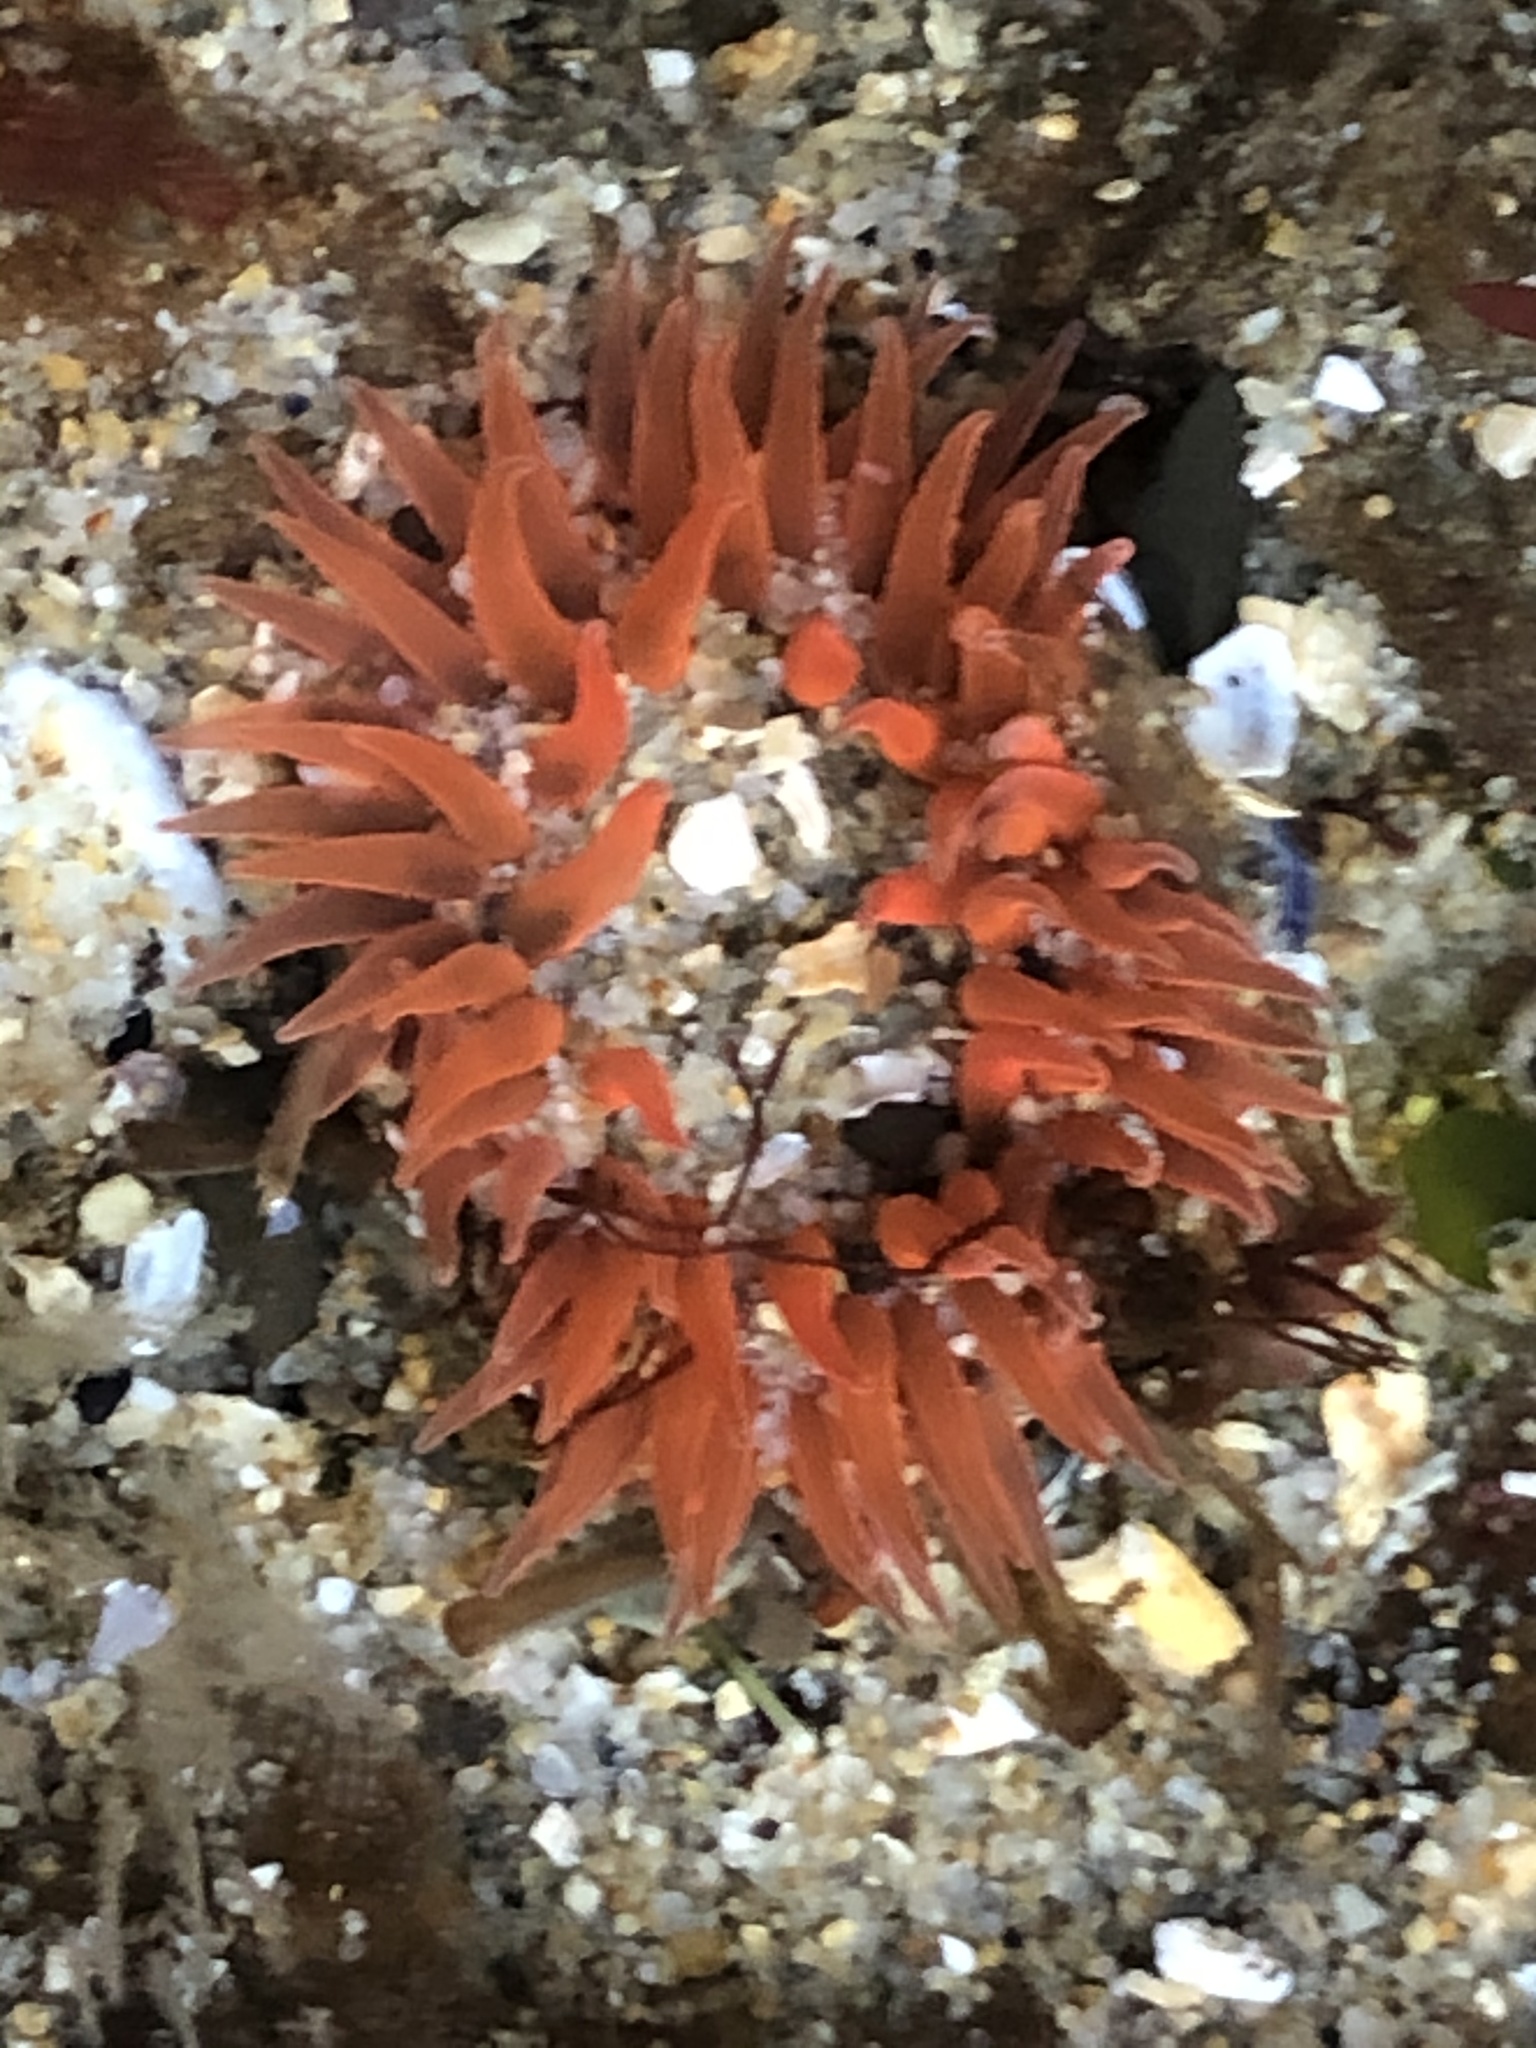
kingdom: Animalia
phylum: Cnidaria
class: Anthozoa
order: Actiniaria
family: Actiniidae
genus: Anthopleura
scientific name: Anthopleura artemisia
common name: Buried sea anemone
